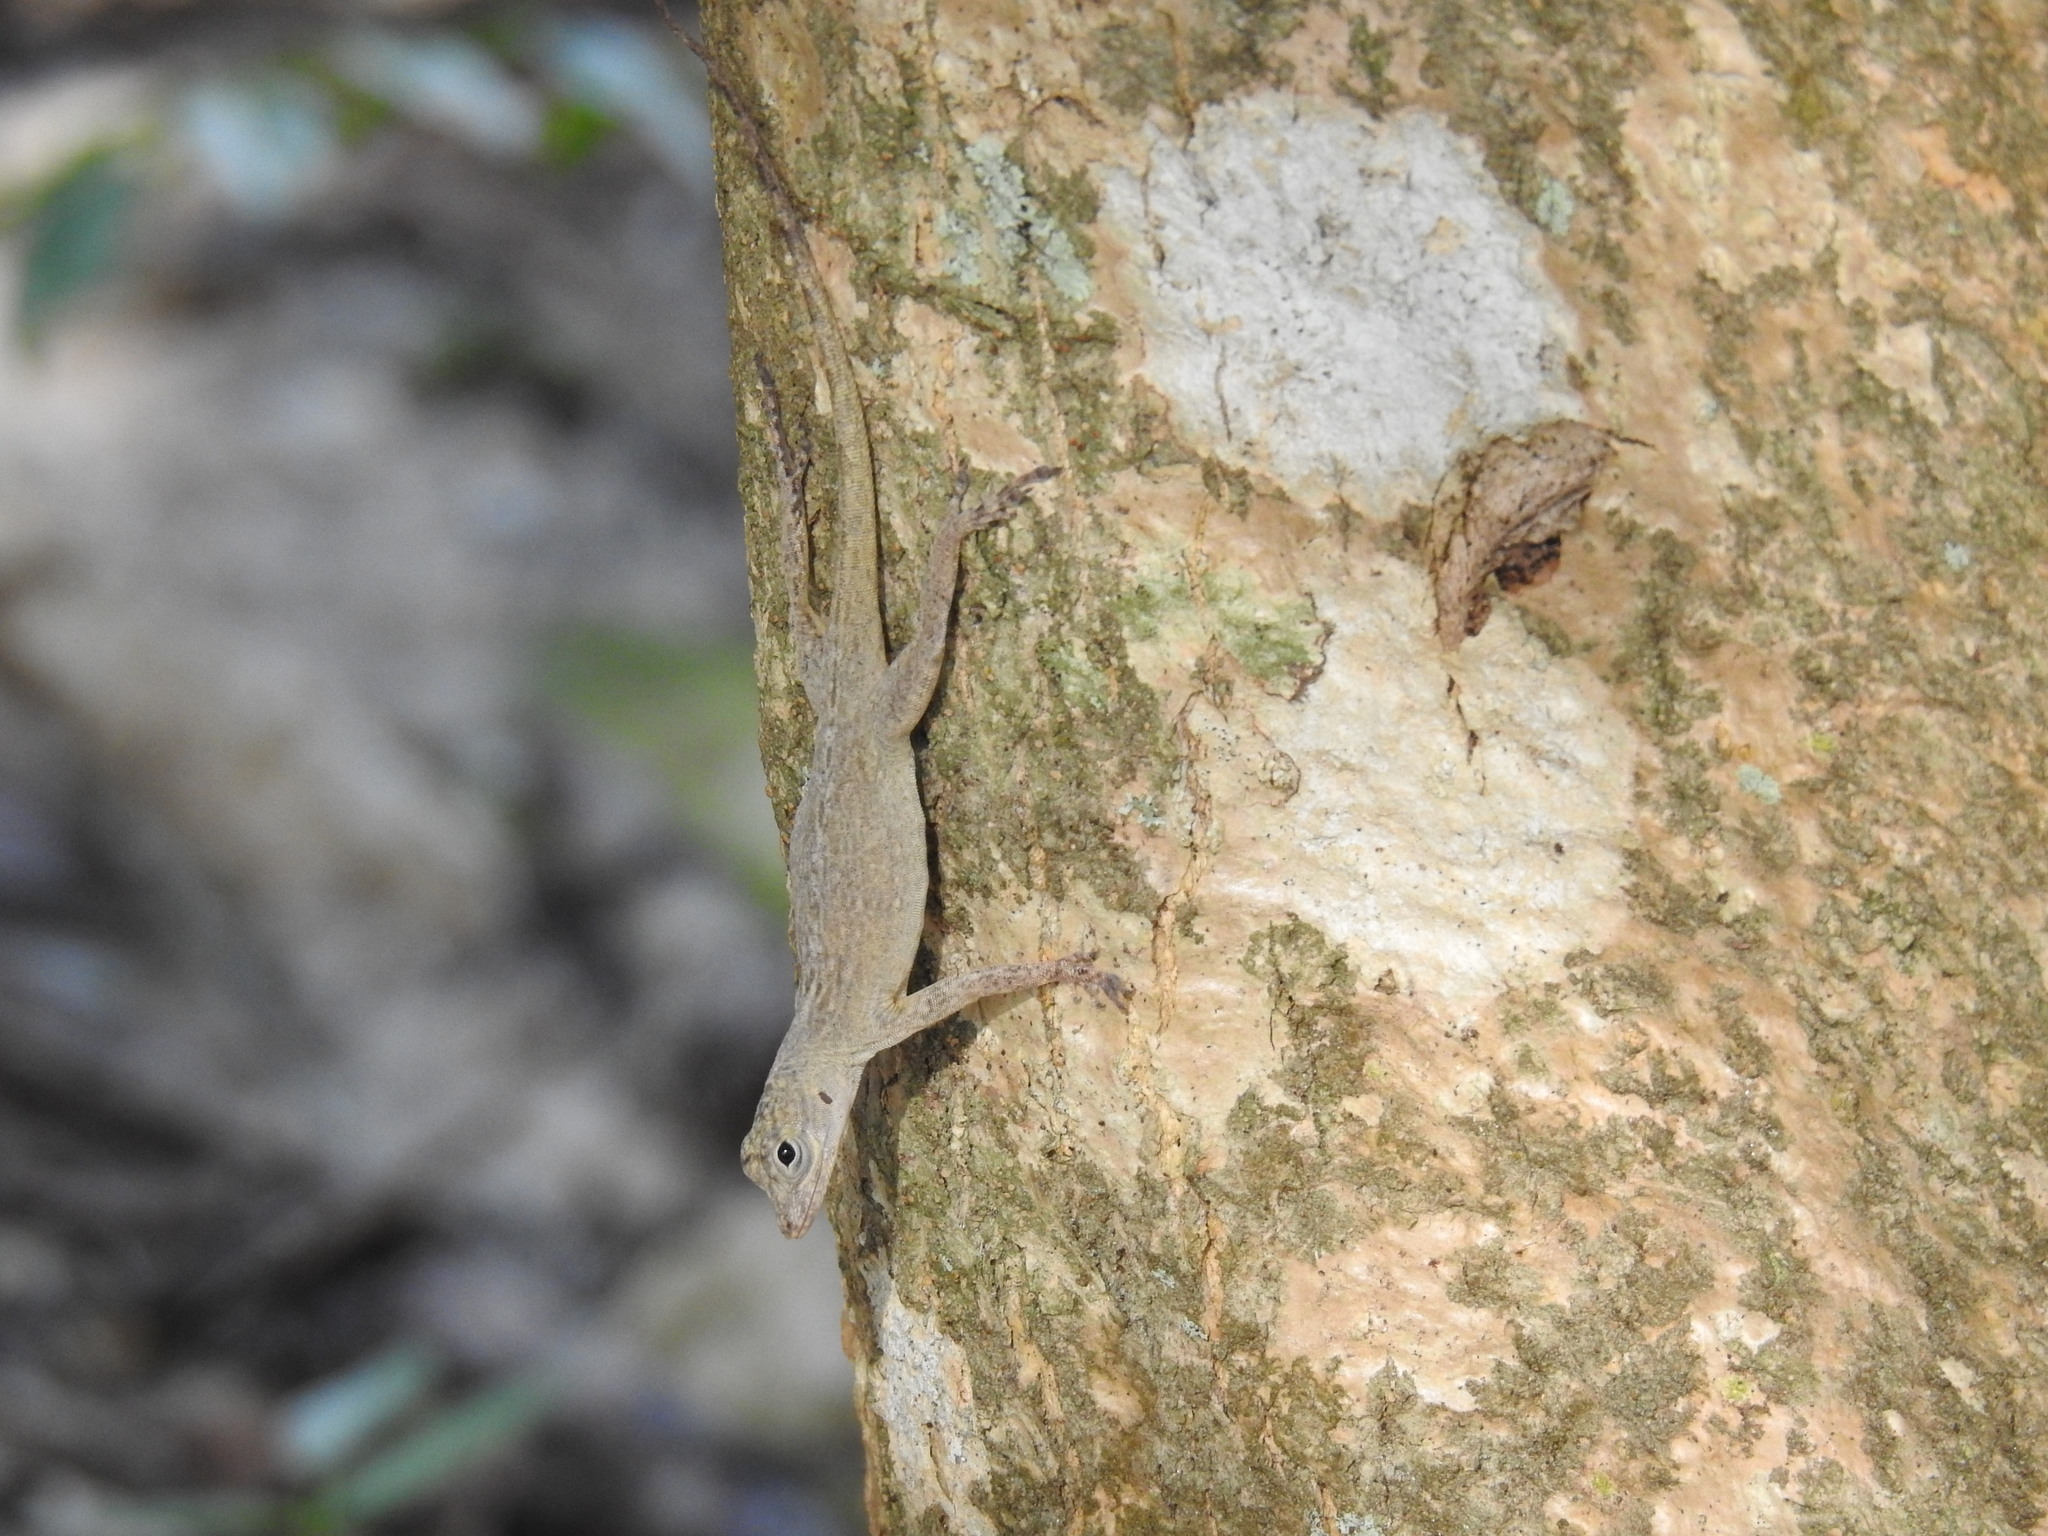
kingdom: Animalia
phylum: Chordata
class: Squamata
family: Dactyloidae
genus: Anolis
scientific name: Anolis distichus
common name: Bark anole
